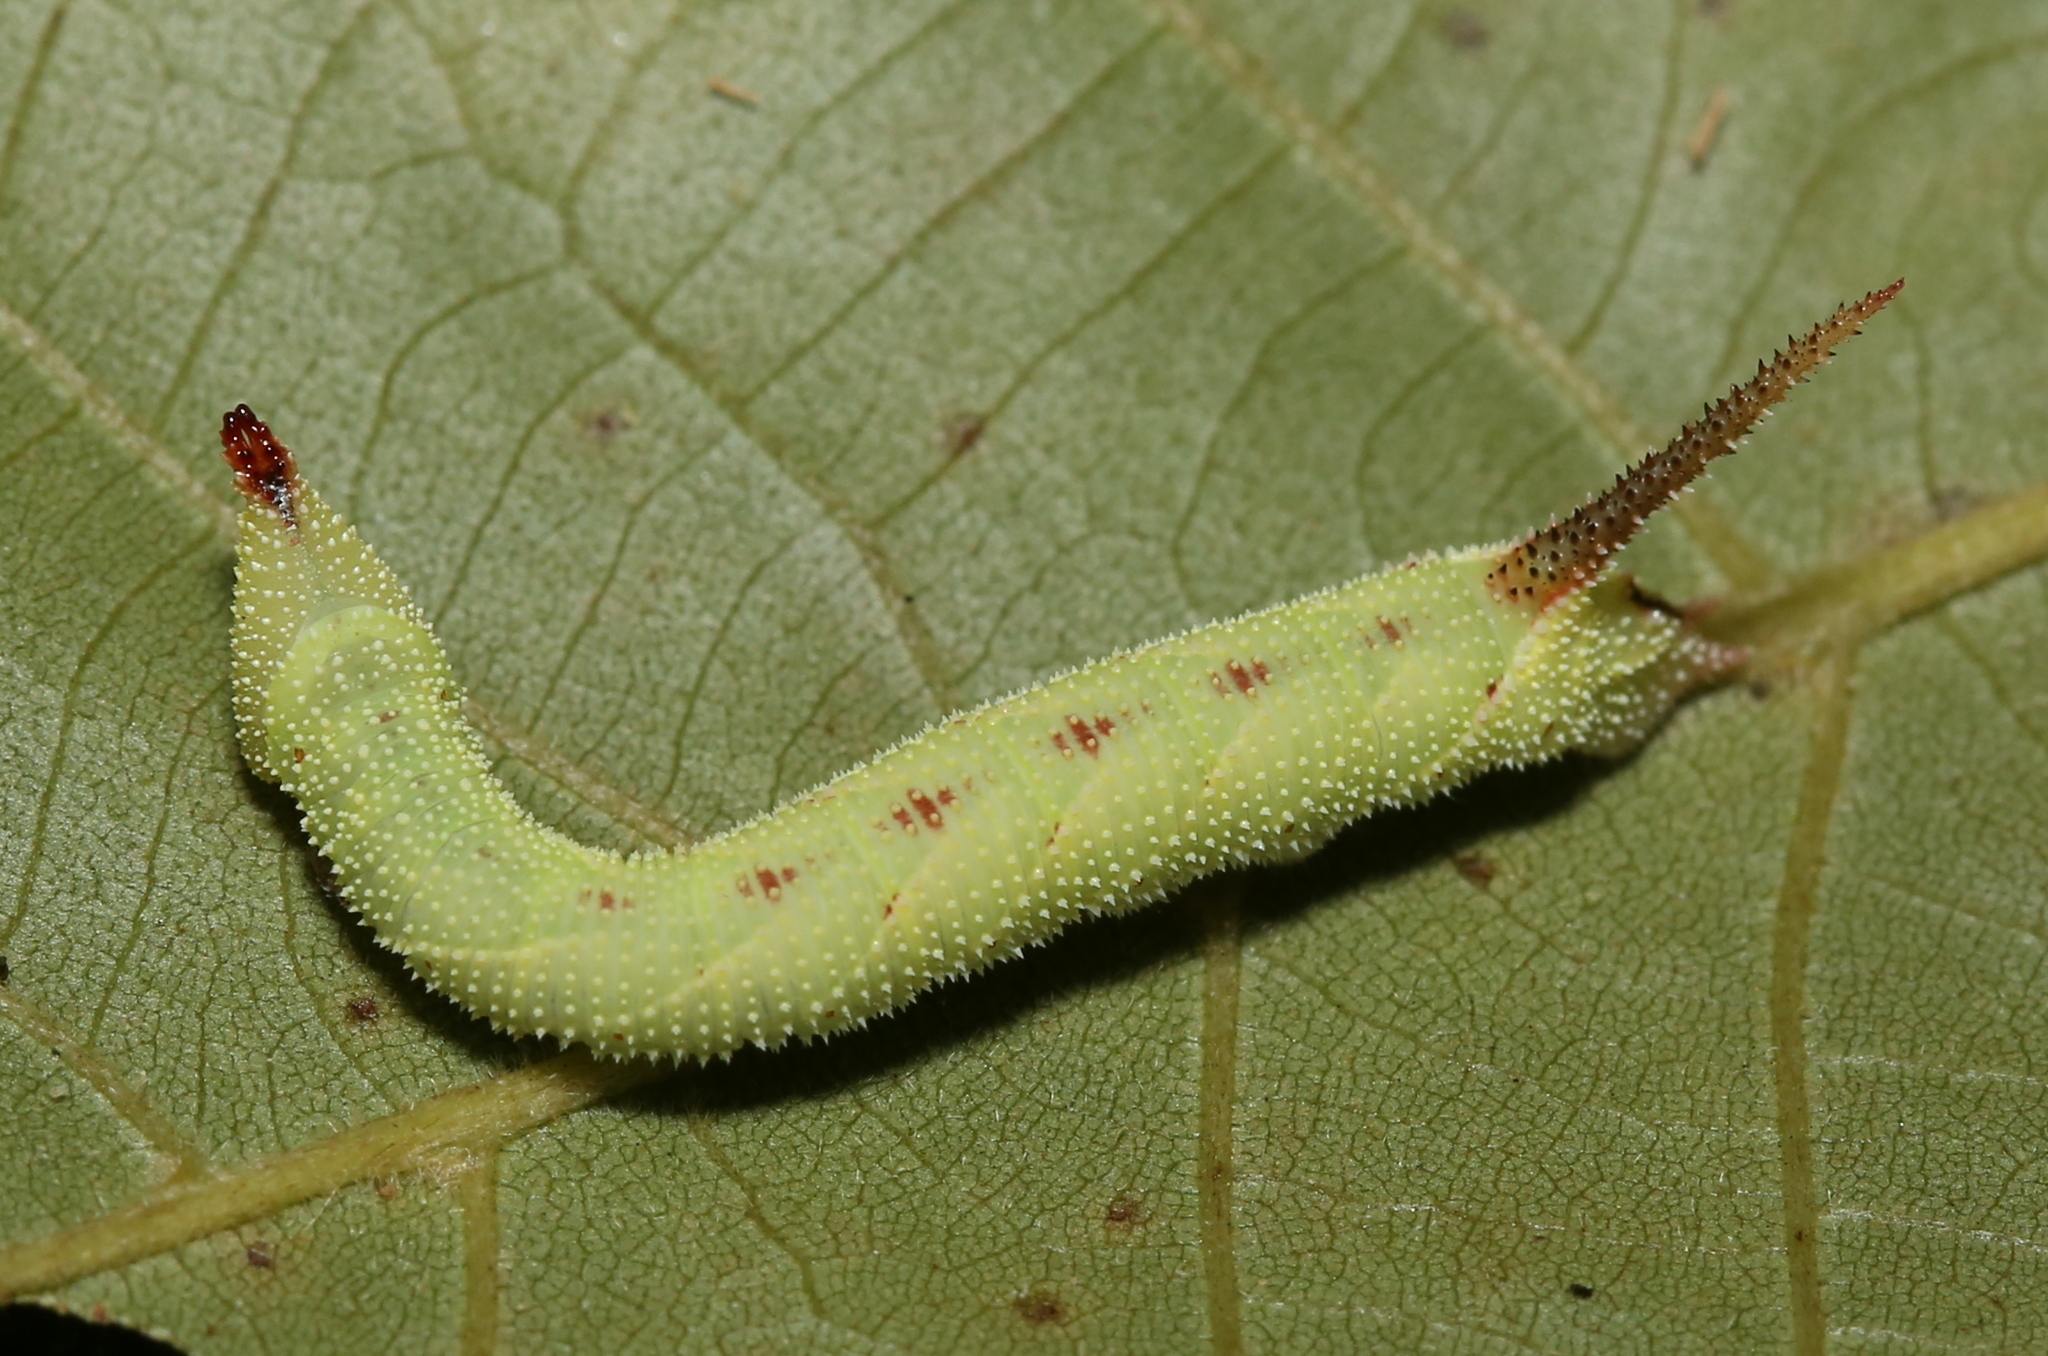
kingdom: Animalia
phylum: Arthropoda
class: Insecta
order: Lepidoptera
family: Sphingidae
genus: Amorpha
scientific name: Amorpha juglandis
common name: Walnut sphinx
